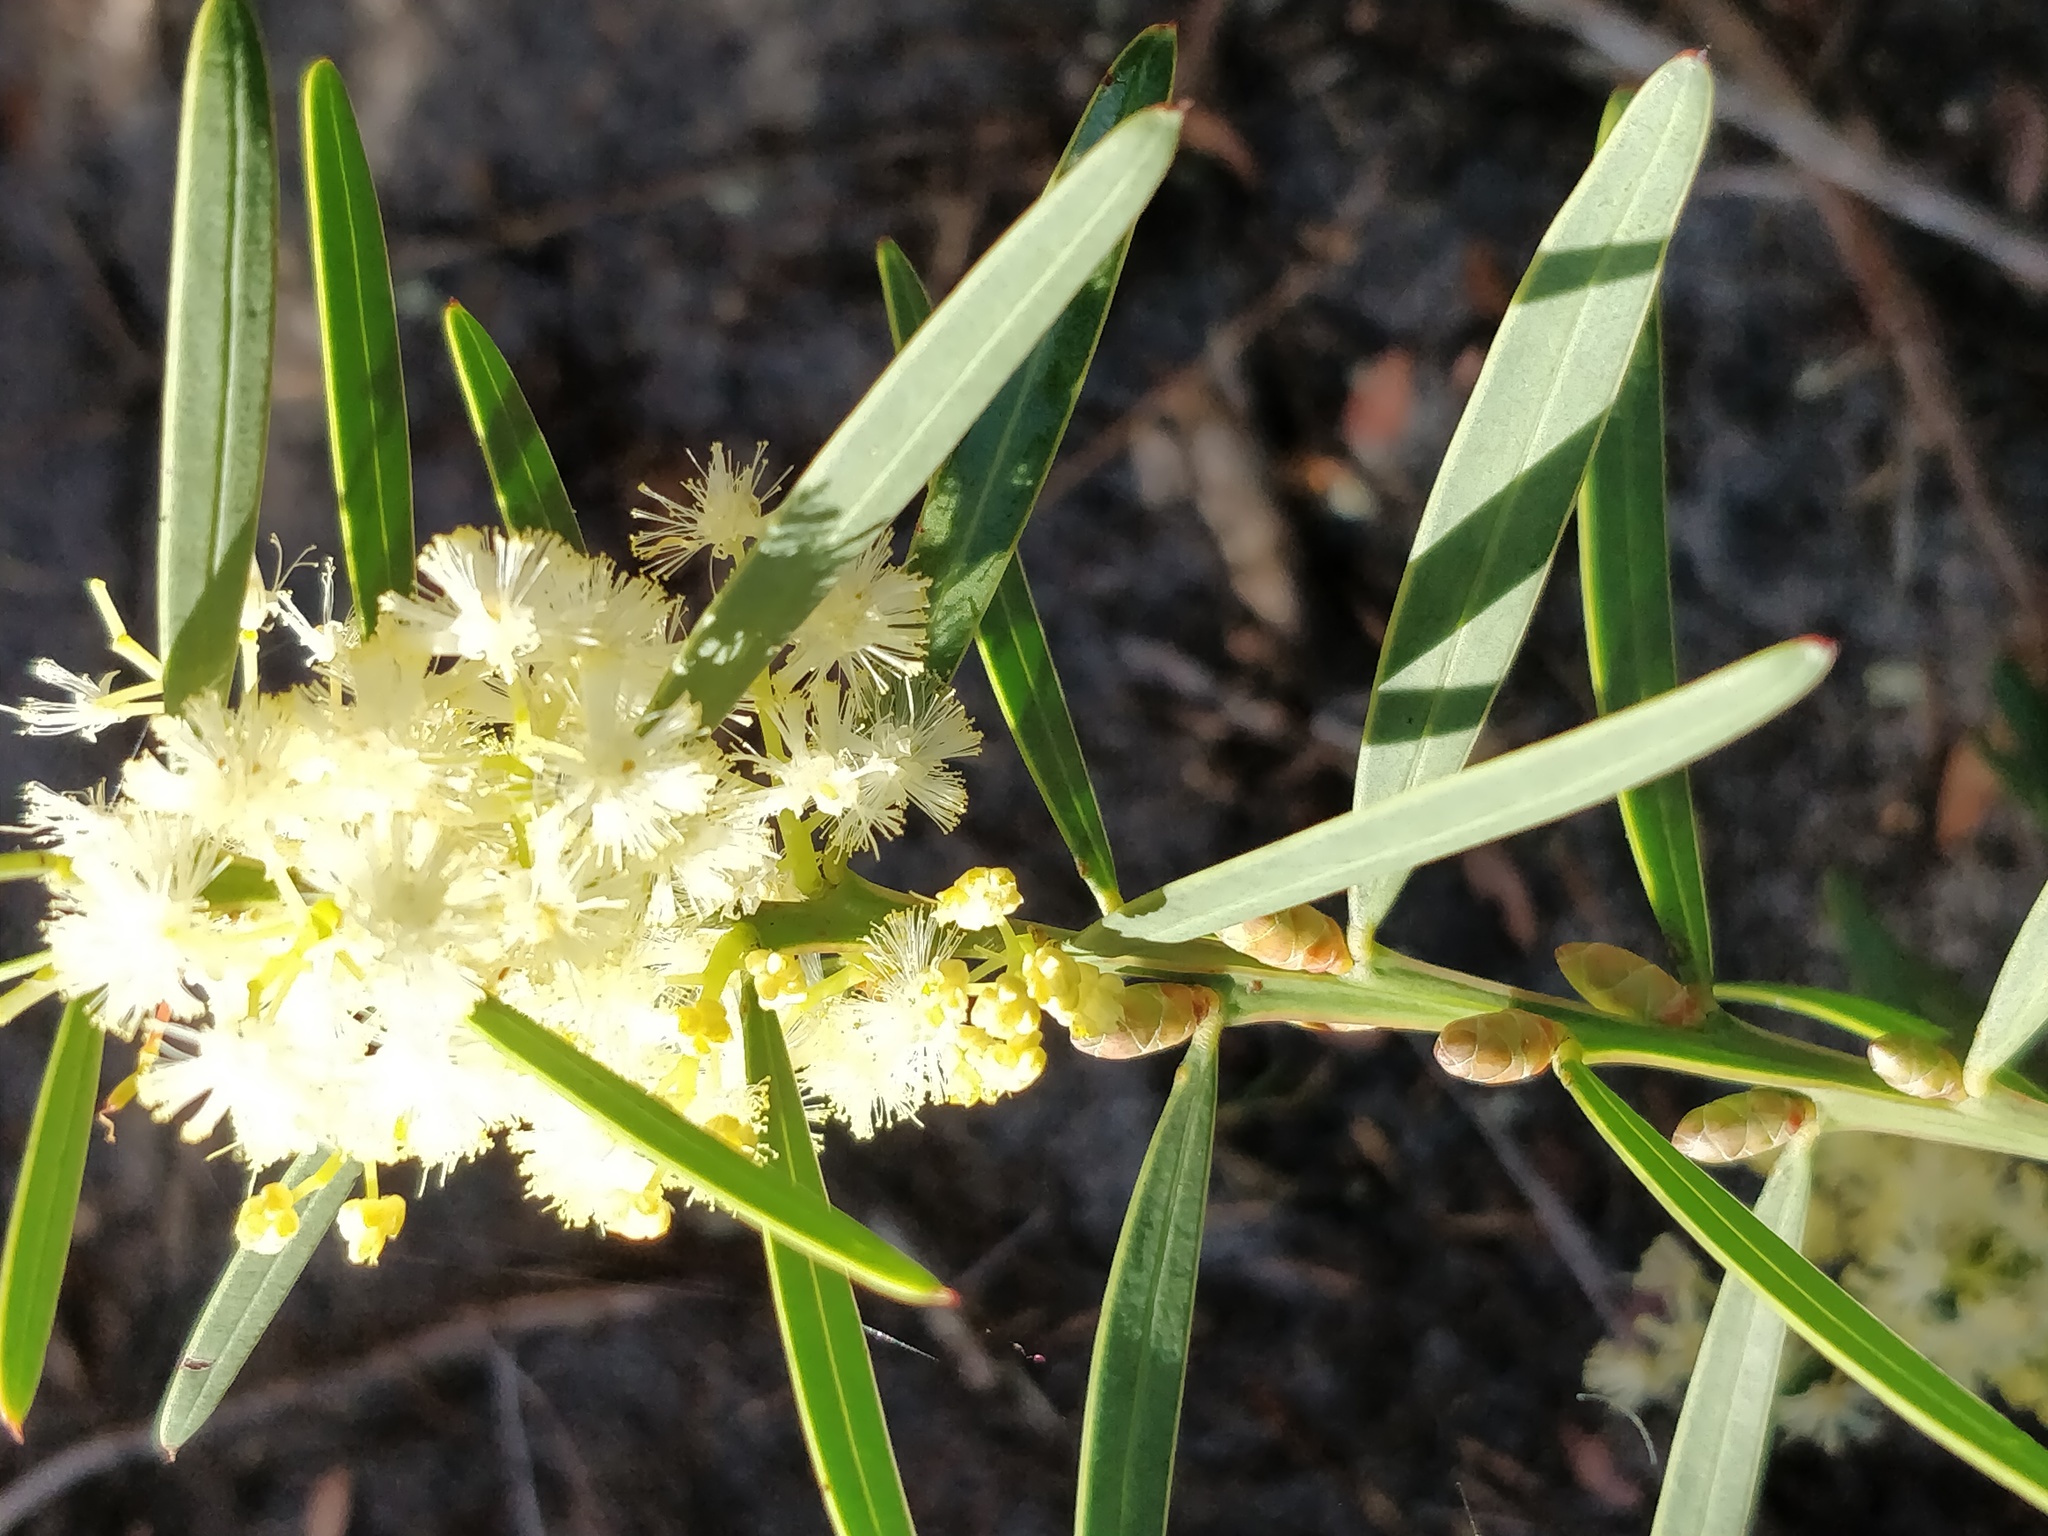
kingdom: Plantae
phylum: Tracheophyta
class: Magnoliopsida
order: Fabales
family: Fabaceae
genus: Acacia
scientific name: Acacia suaveolens
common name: Sweet acacia
